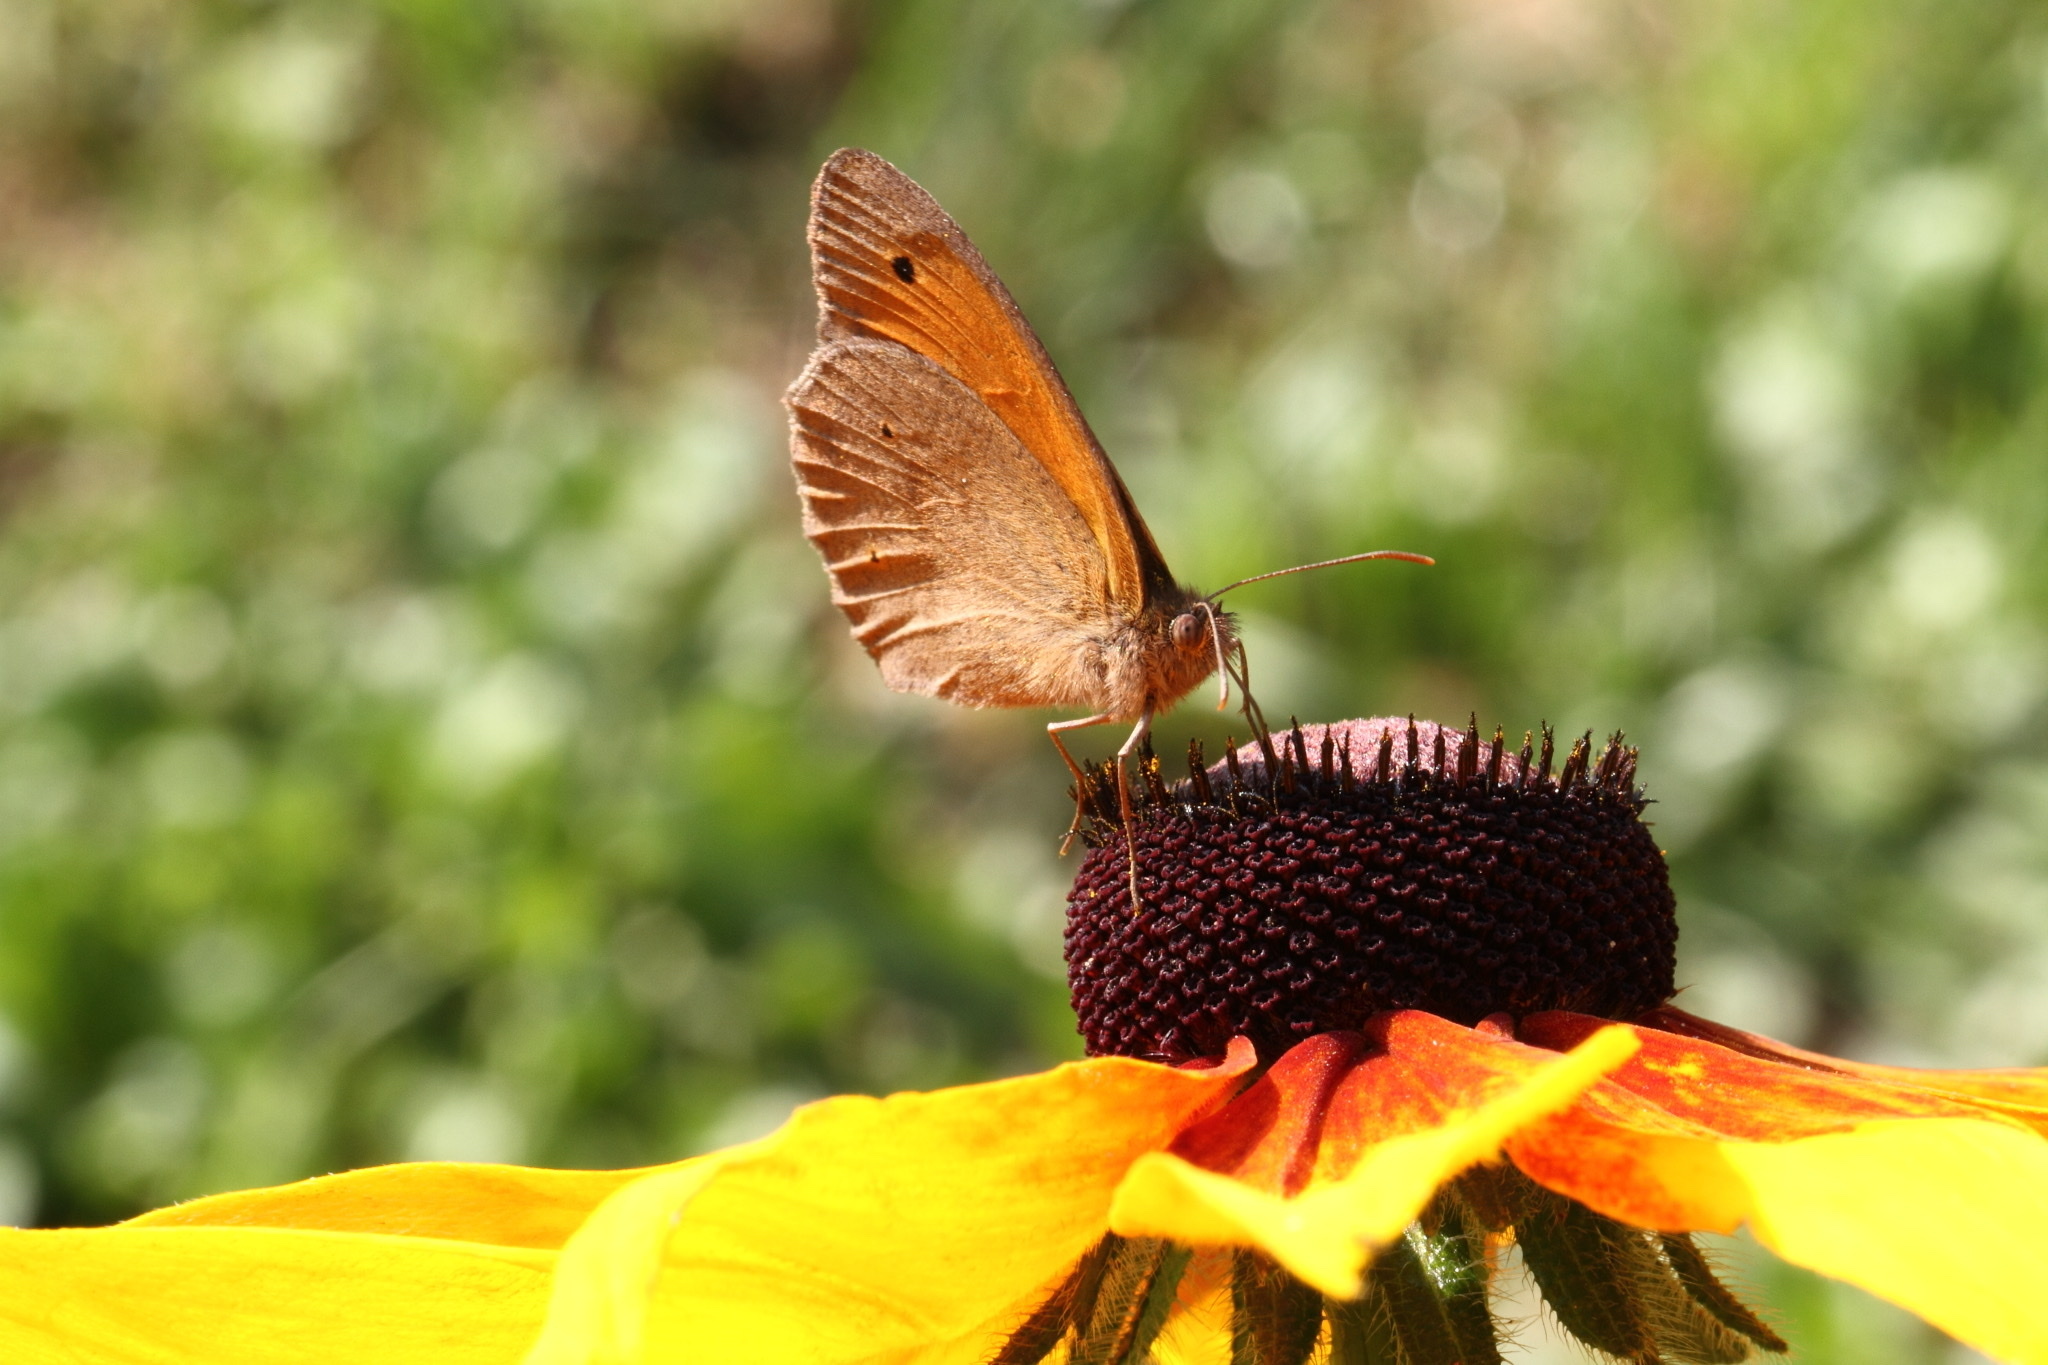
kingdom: Animalia
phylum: Arthropoda
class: Insecta
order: Lepidoptera
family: Nymphalidae
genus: Maniola
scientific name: Maniola jurtina
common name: Meadow brown
